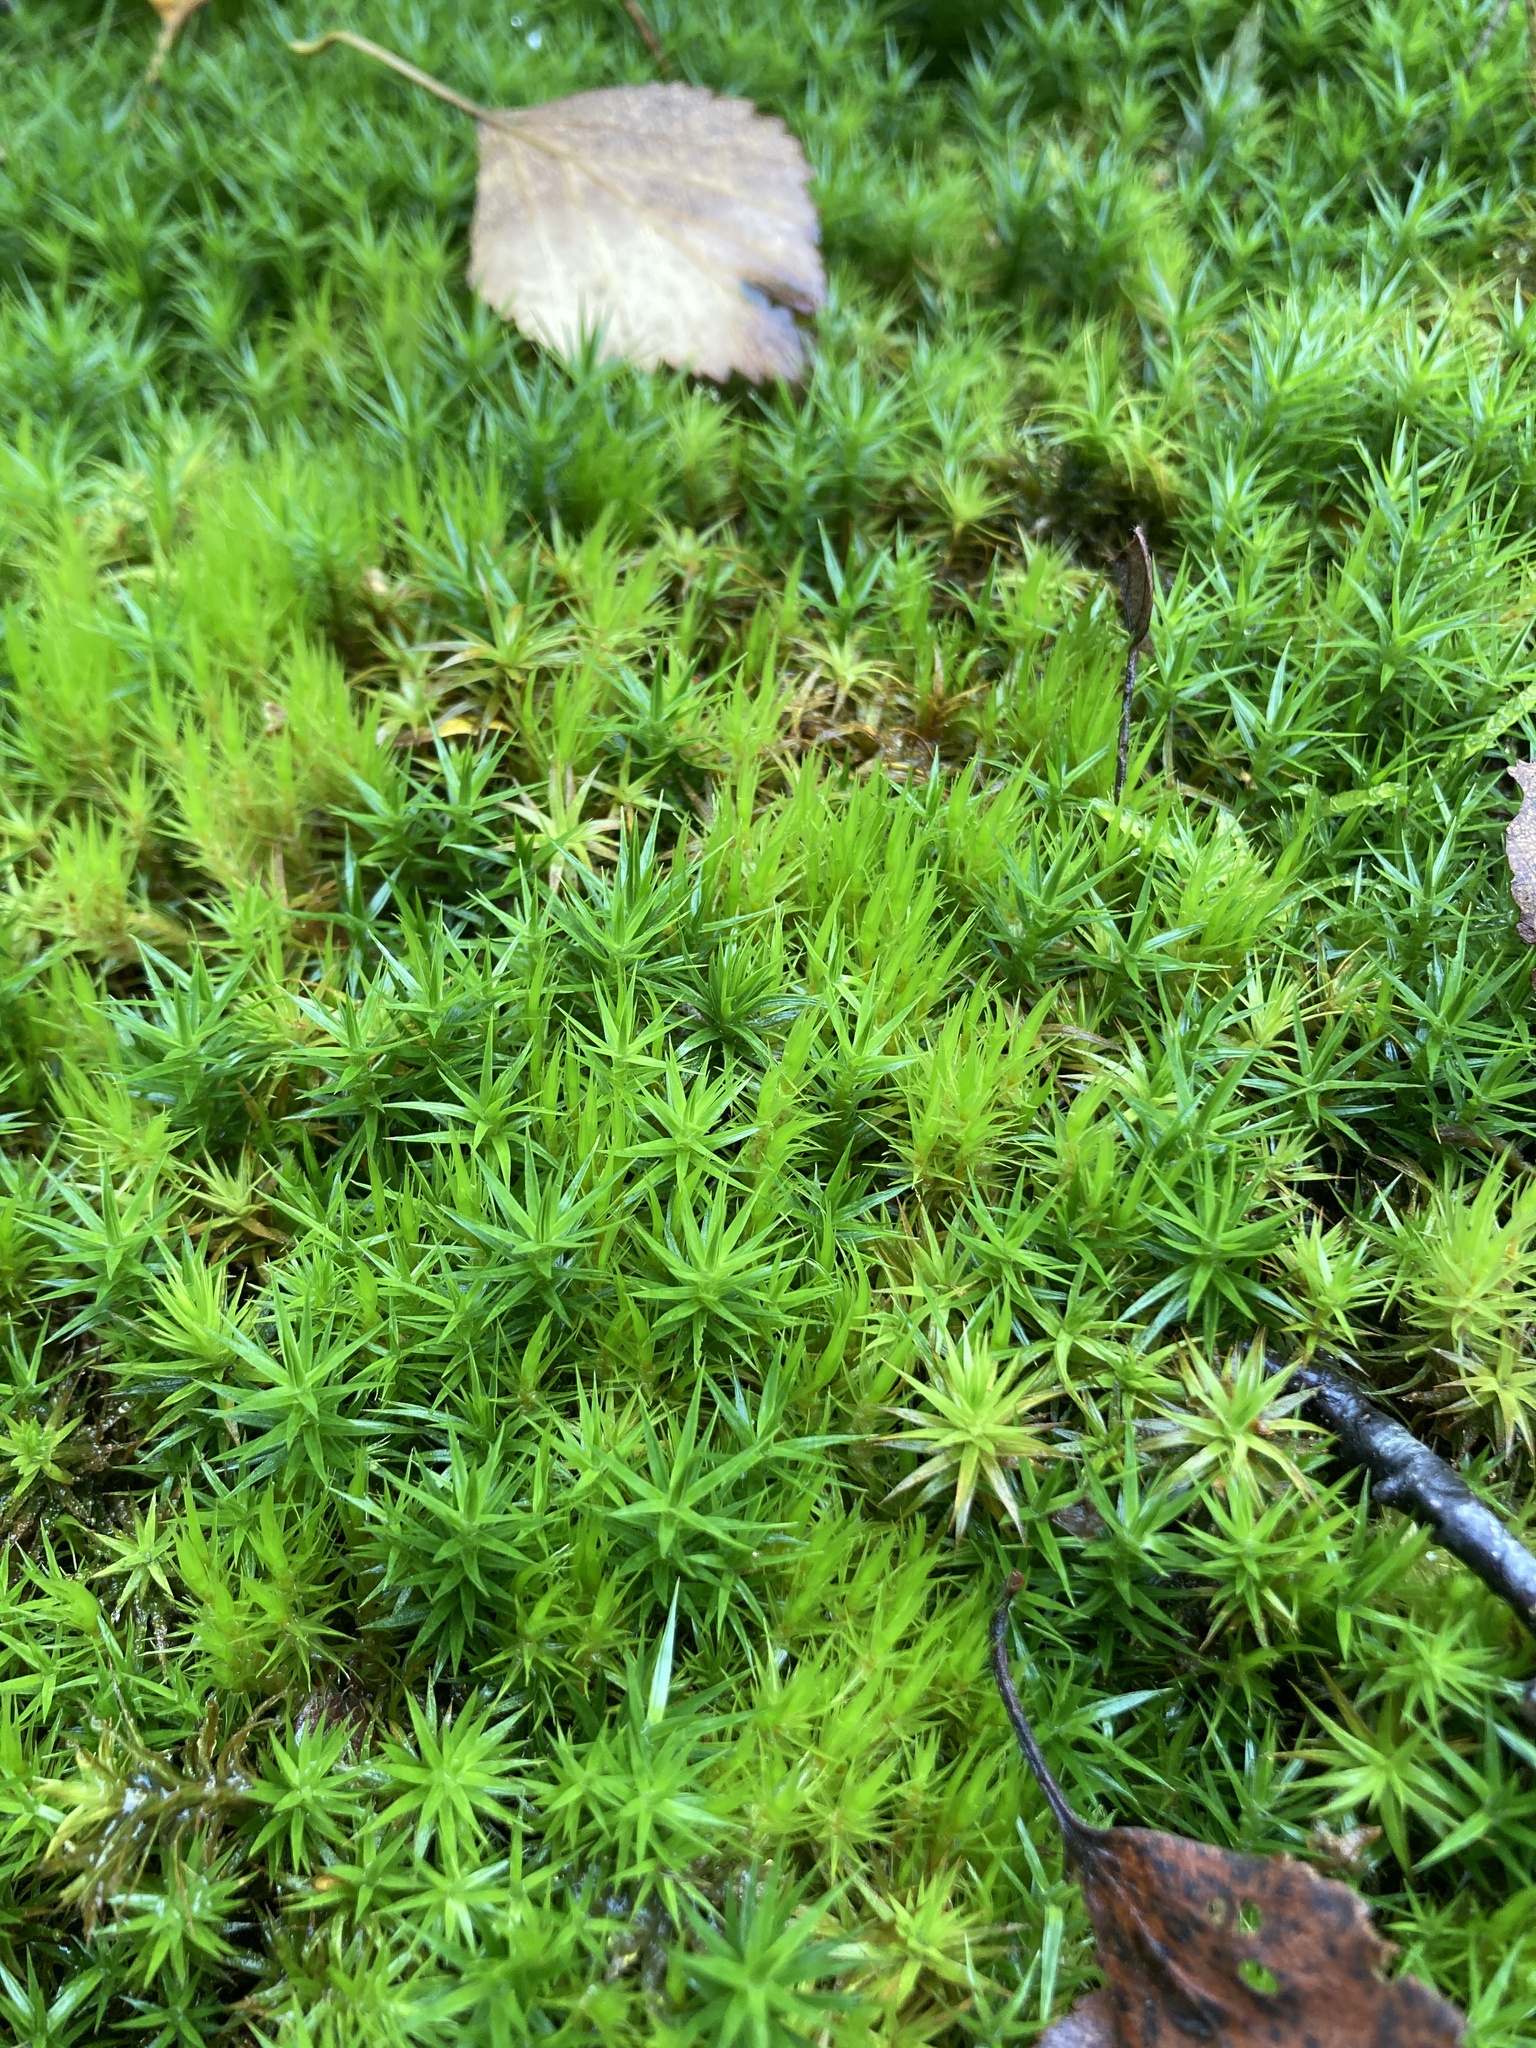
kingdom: Plantae
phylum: Bryophyta
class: Polytrichopsida
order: Polytrichales
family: Polytrichaceae
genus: Polytrichum
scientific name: Polytrichum formosum
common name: Bank haircap moss
